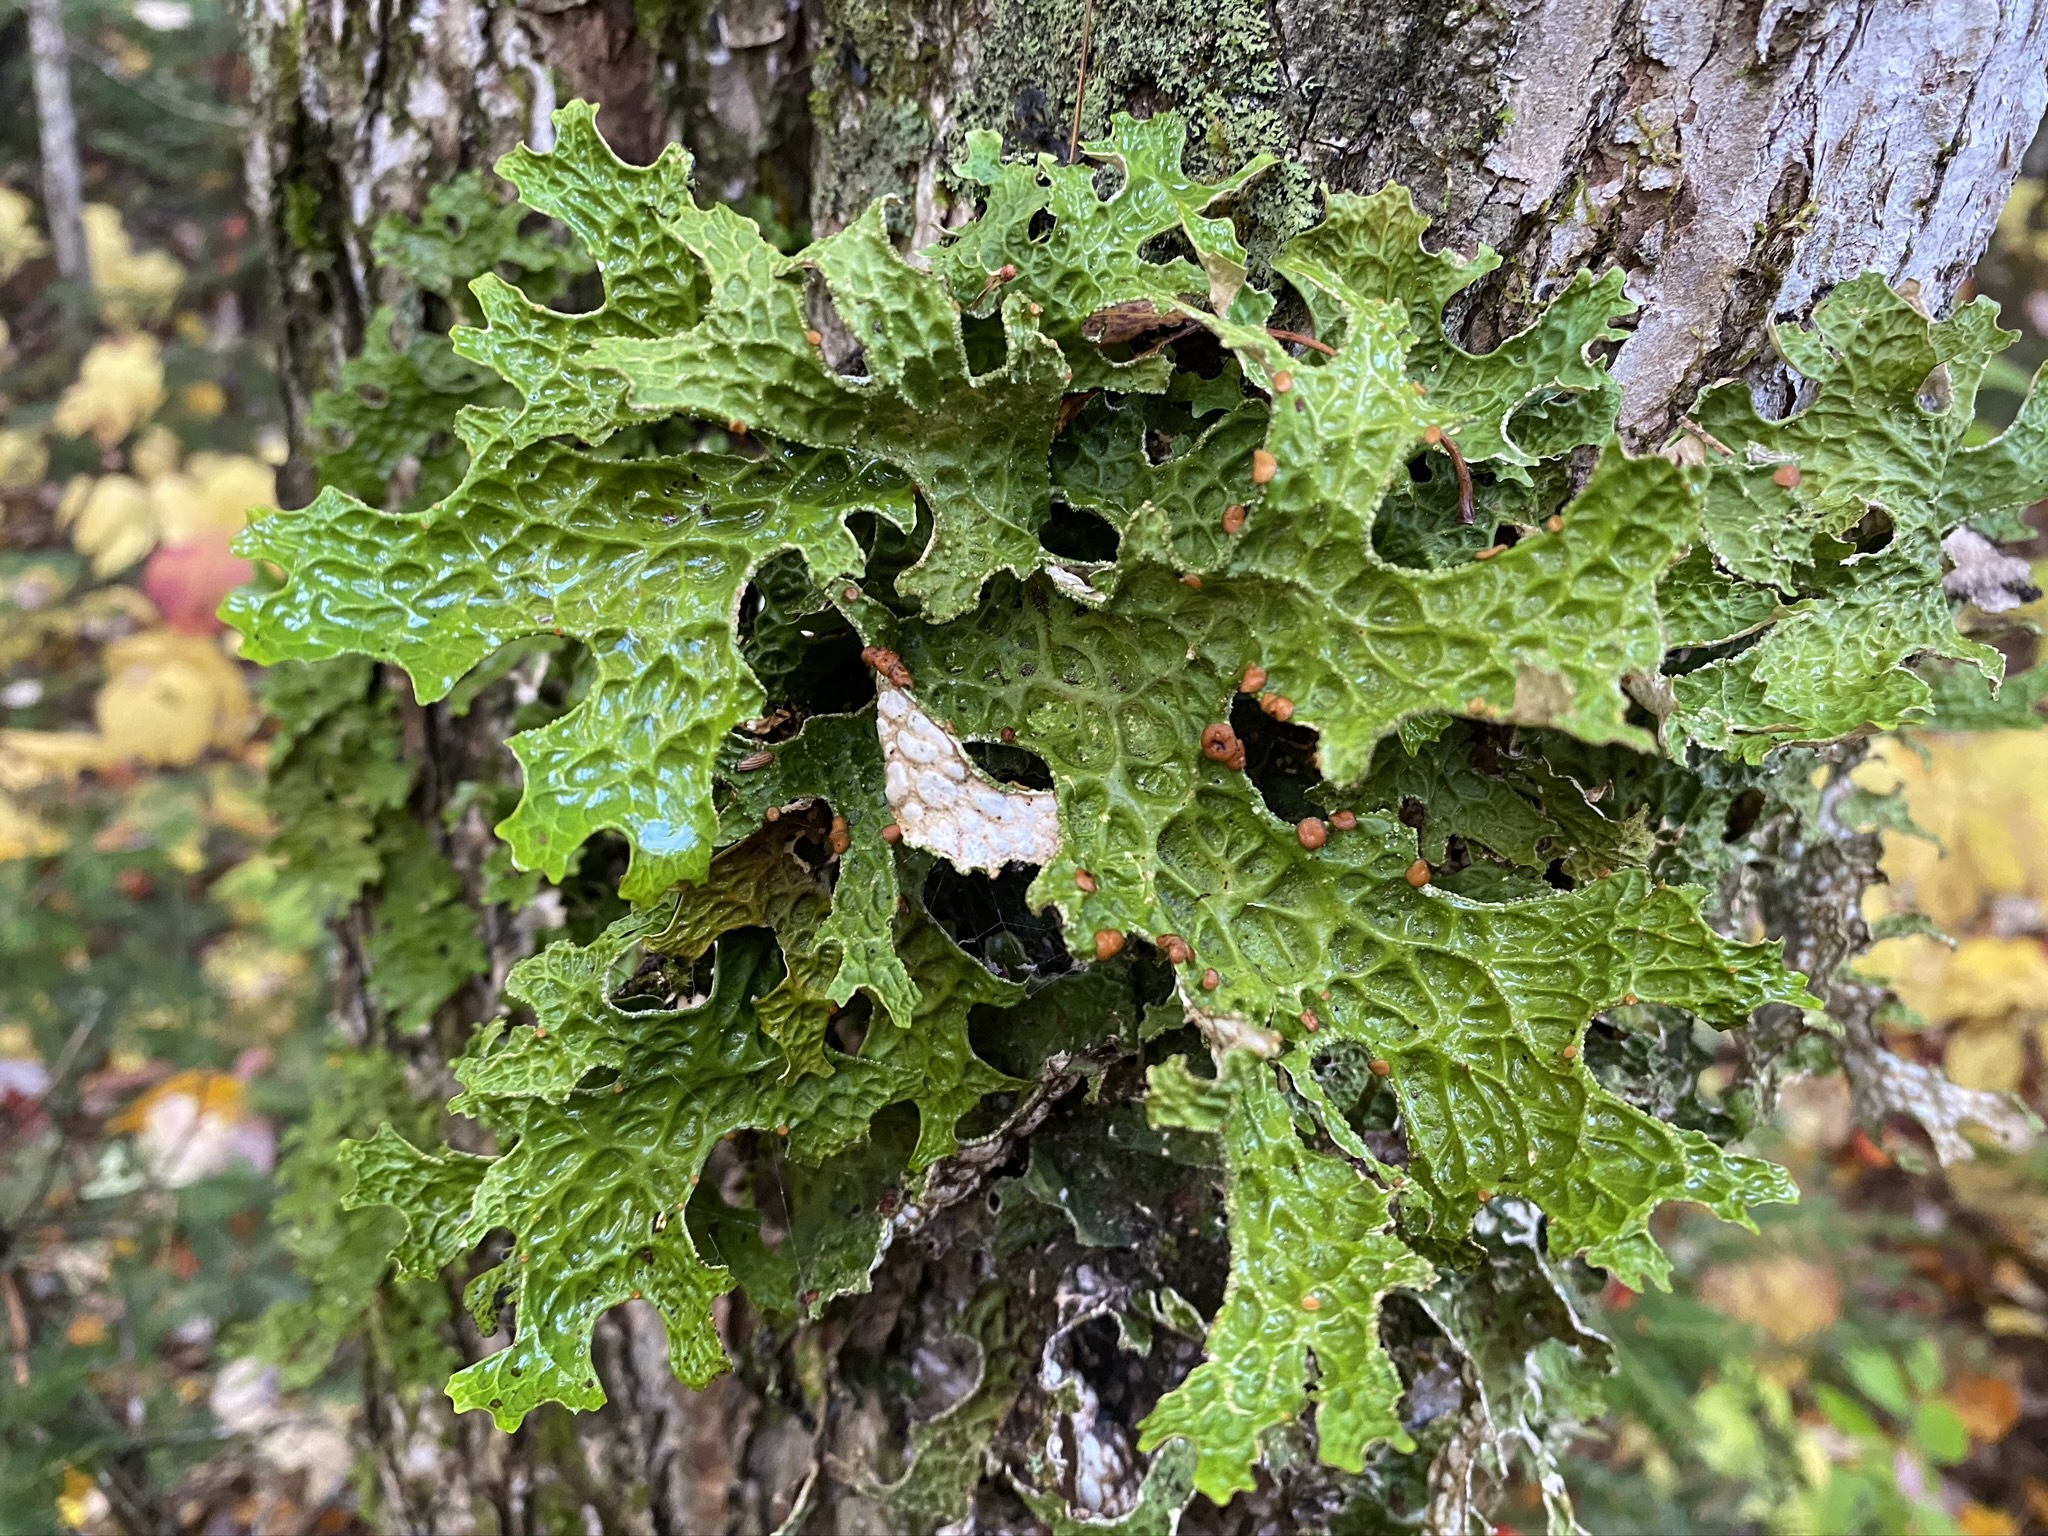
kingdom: Fungi
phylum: Ascomycota
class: Lecanoromycetes
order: Peltigerales
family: Lobariaceae
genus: Lobaria
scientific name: Lobaria pulmonaria
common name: Lungwort
